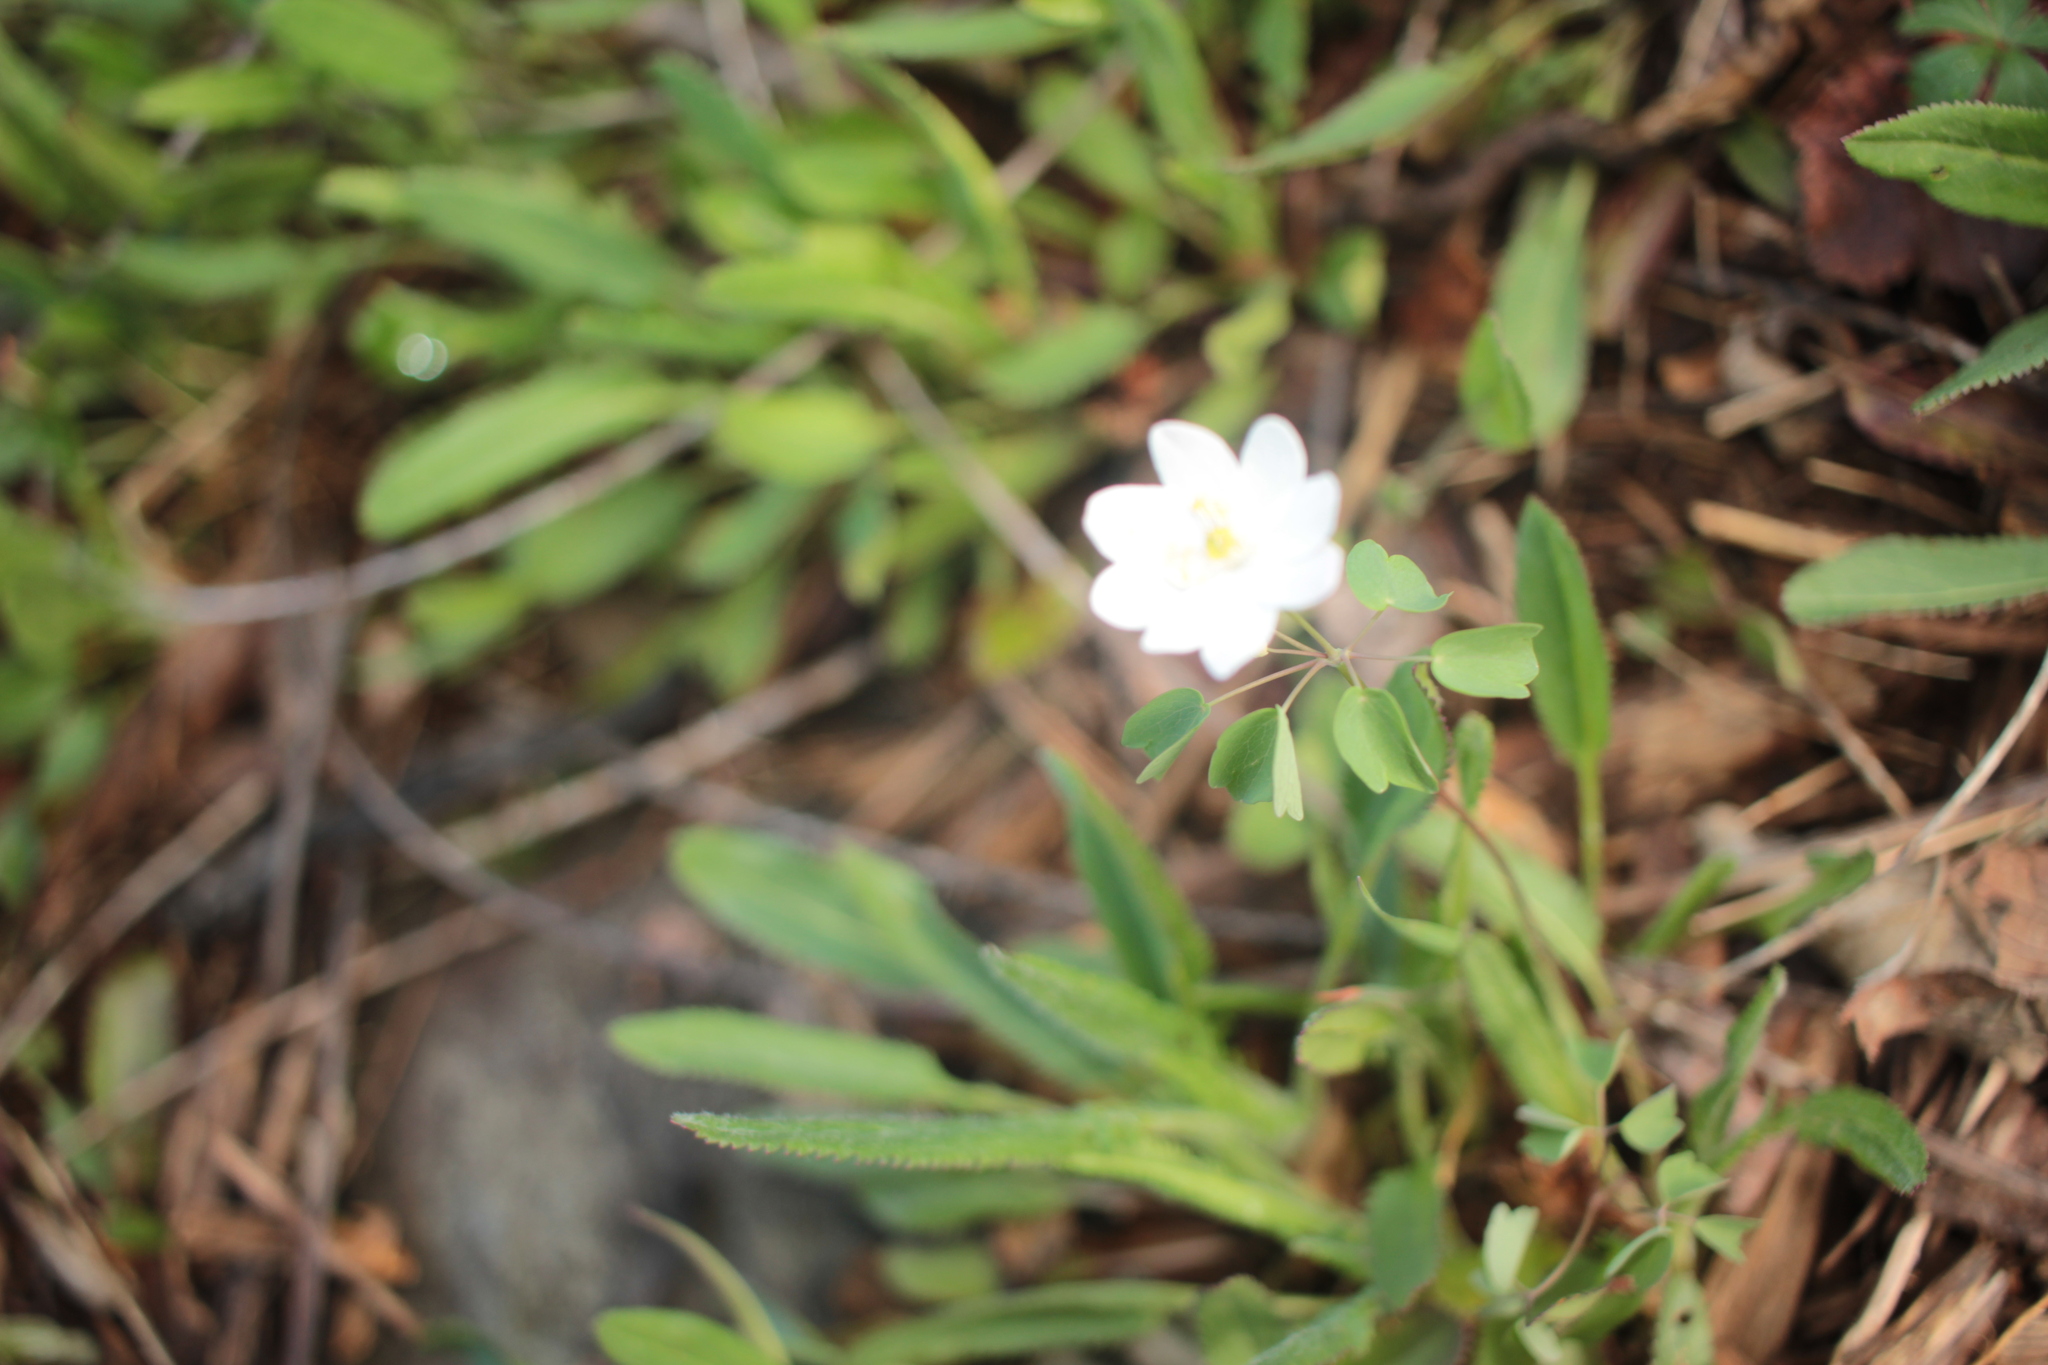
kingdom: Plantae
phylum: Tracheophyta
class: Magnoliopsida
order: Ranunculales
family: Ranunculaceae
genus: Thalictrum
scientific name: Thalictrum thalictroides
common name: Rue-anemone
